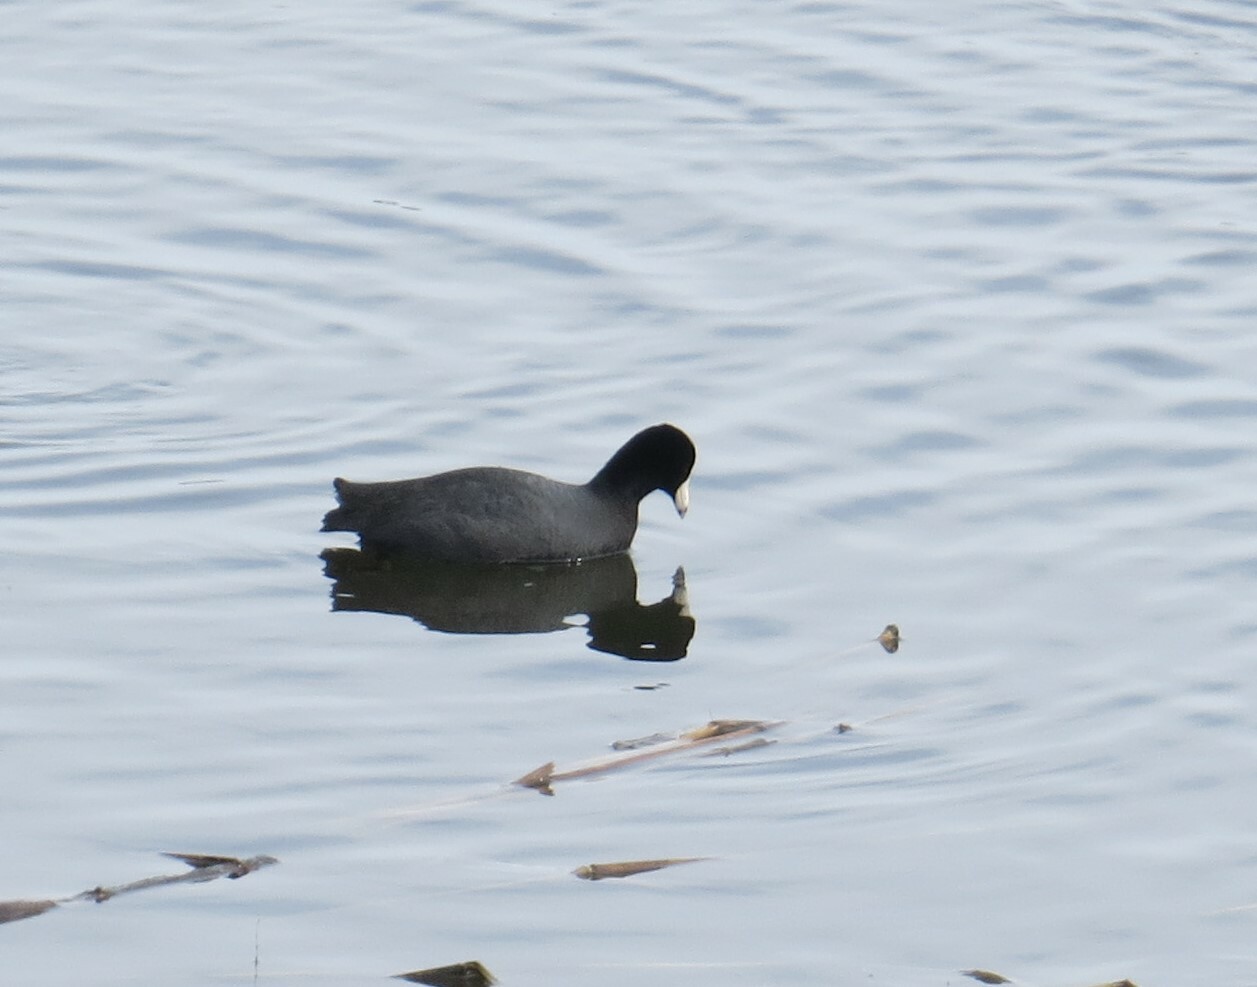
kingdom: Animalia
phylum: Chordata
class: Aves
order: Gruiformes
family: Rallidae
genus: Fulica
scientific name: Fulica americana
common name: American coot
